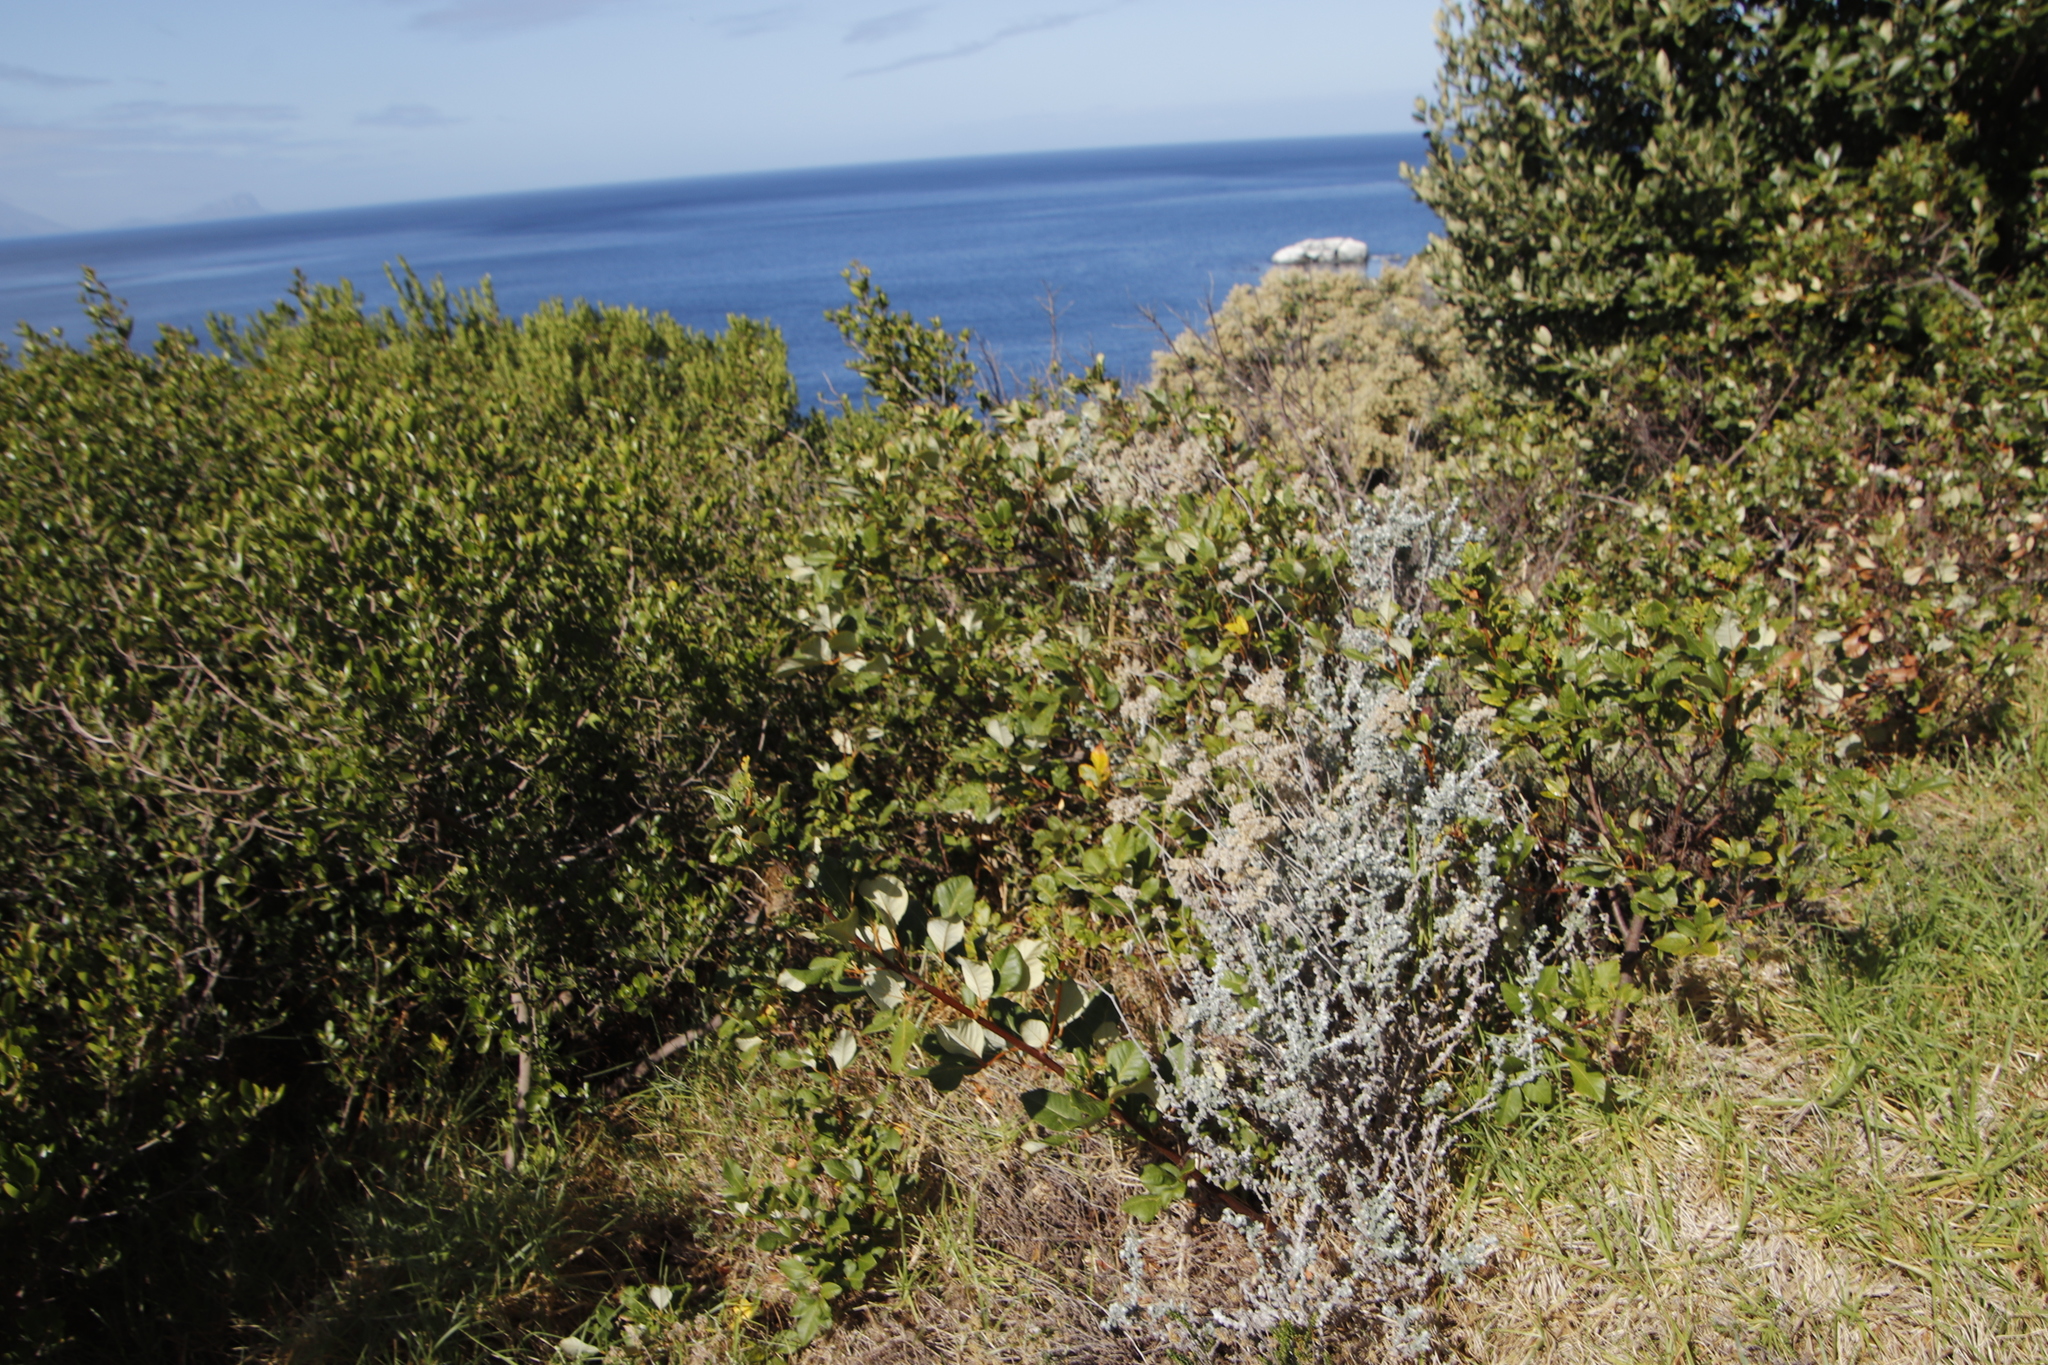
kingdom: Plantae
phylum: Tracheophyta
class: Magnoliopsida
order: Sapindales
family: Anacardiaceae
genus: Searsia
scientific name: Searsia tomentosa
